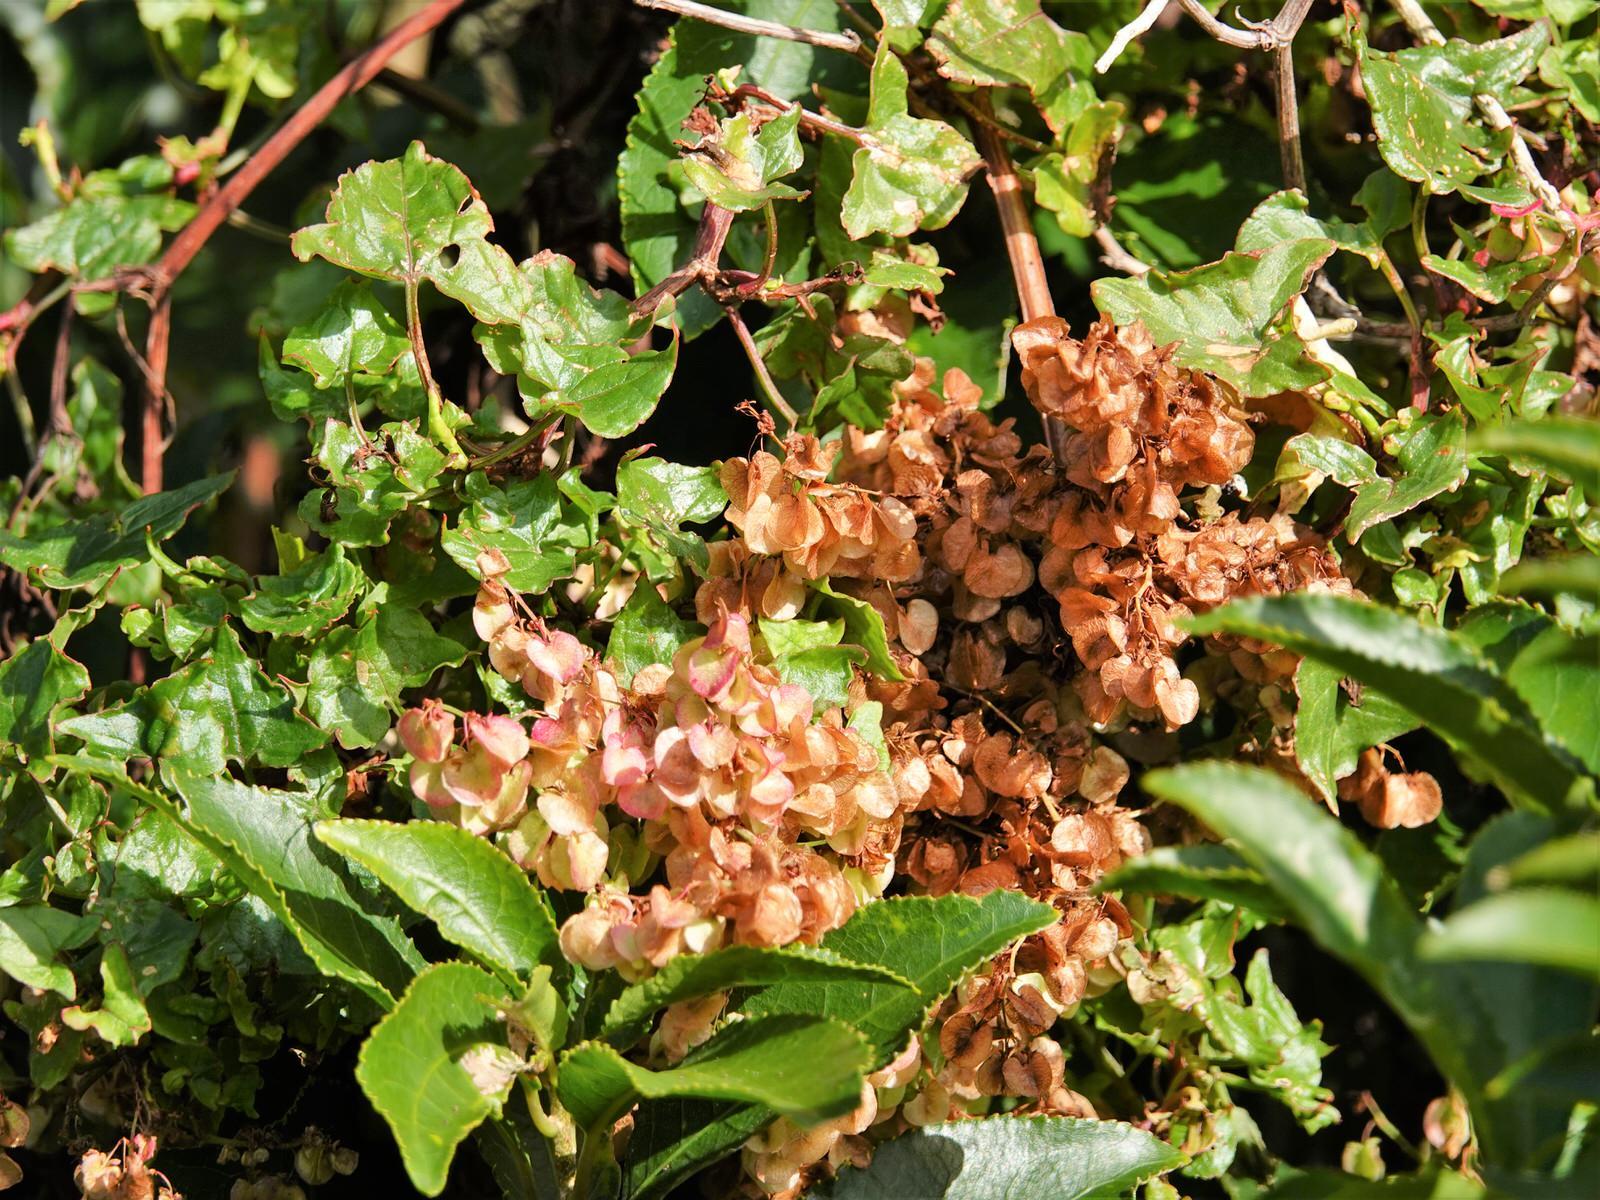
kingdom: Plantae
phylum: Tracheophyta
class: Magnoliopsida
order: Caryophyllales
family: Polygonaceae
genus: Rumex
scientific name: Rumex sagittatus
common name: Climbing dock
